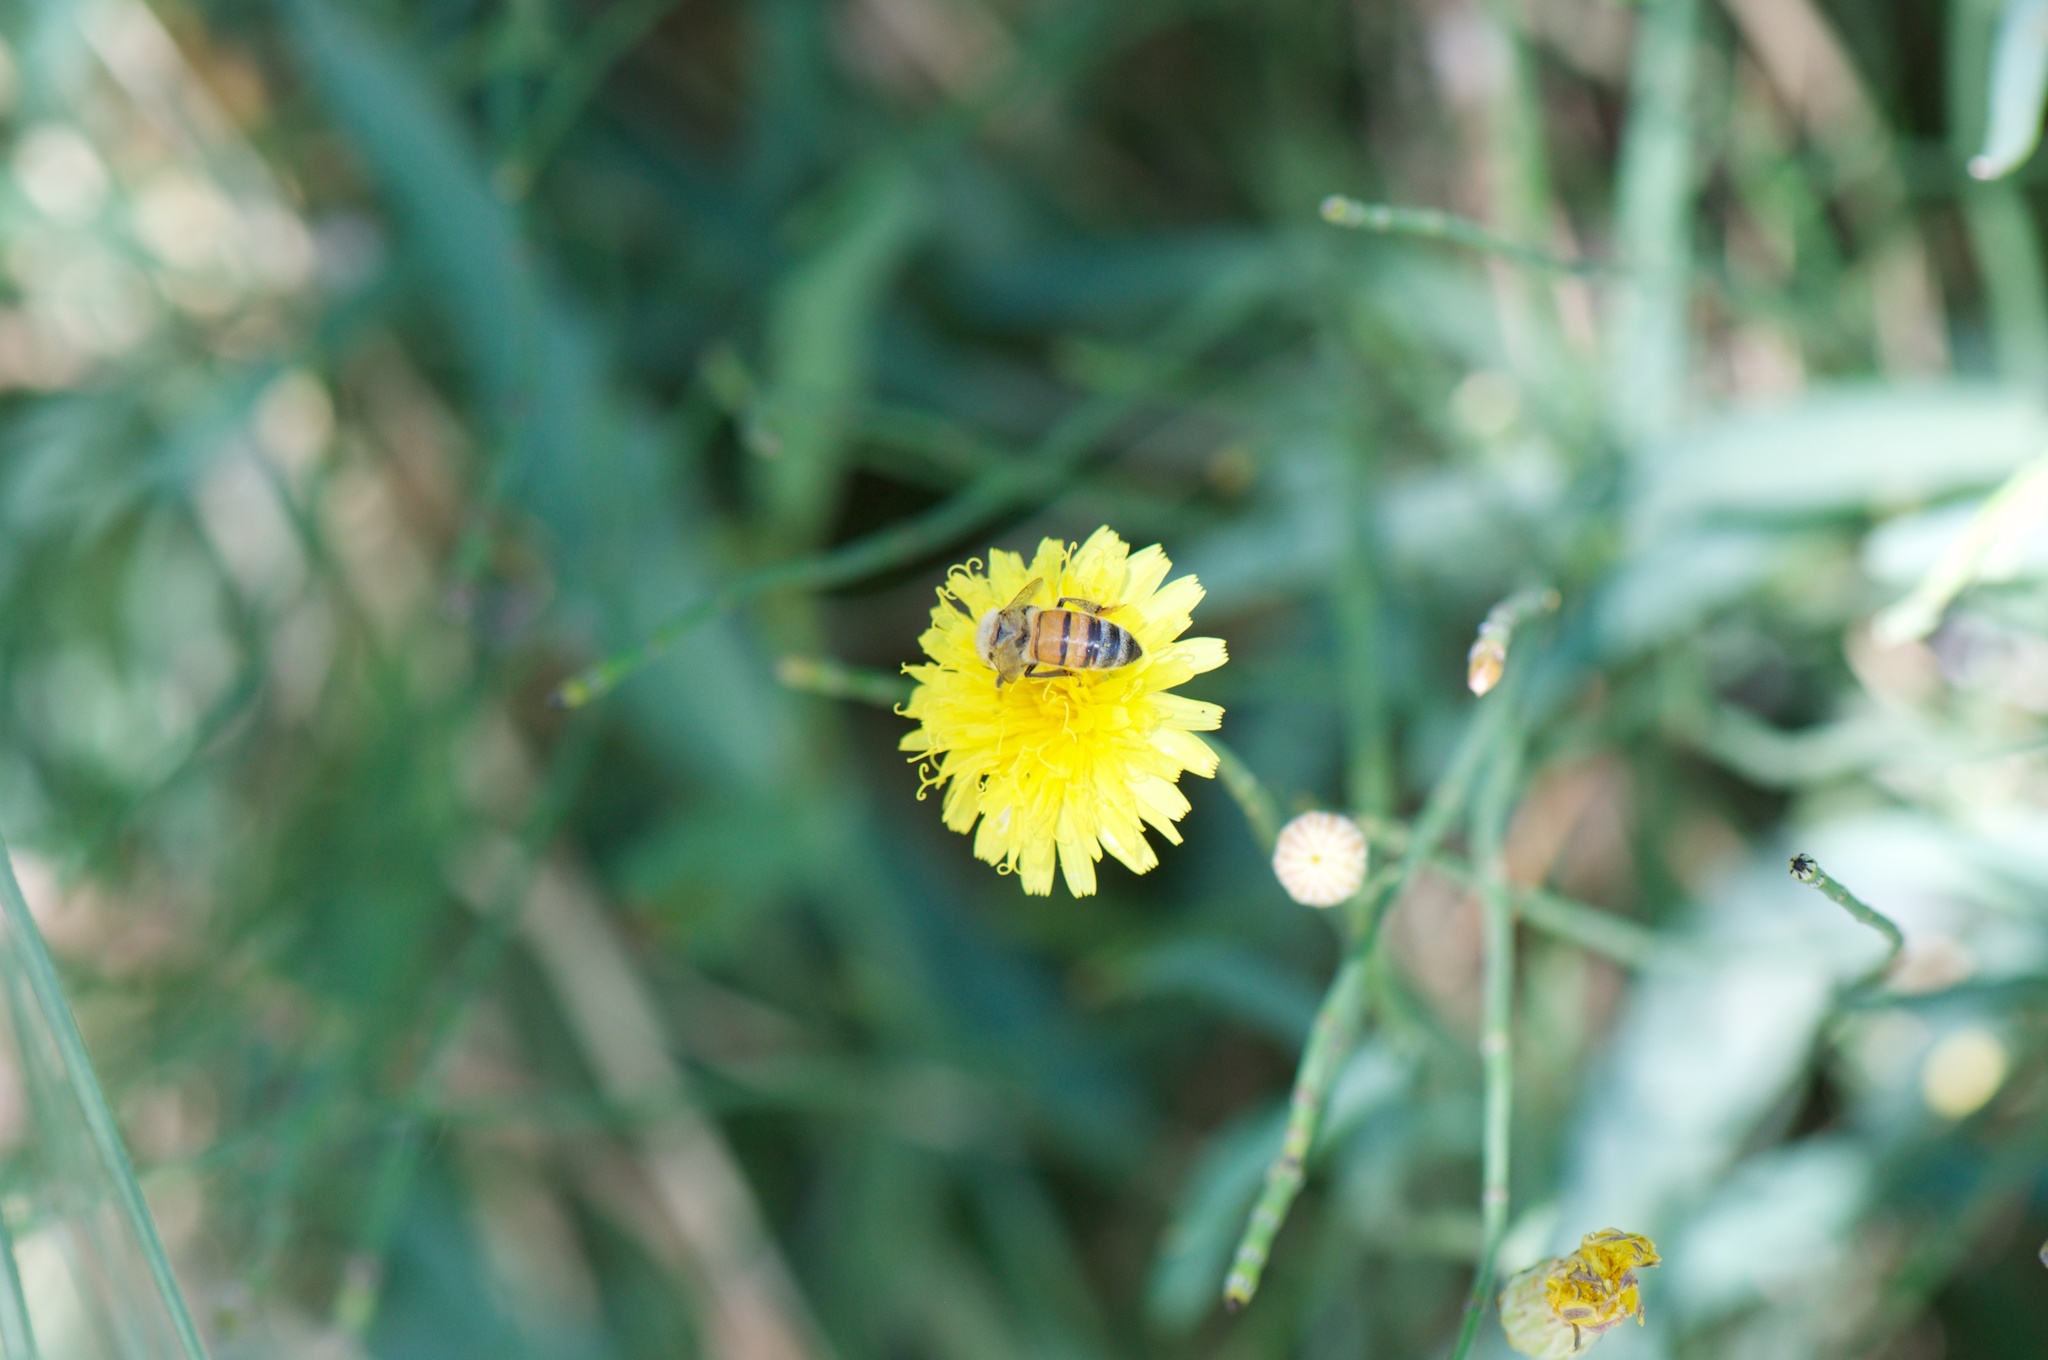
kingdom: Animalia
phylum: Arthropoda
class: Insecta
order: Hymenoptera
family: Apidae
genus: Apis
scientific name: Apis mellifera
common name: Honey bee
